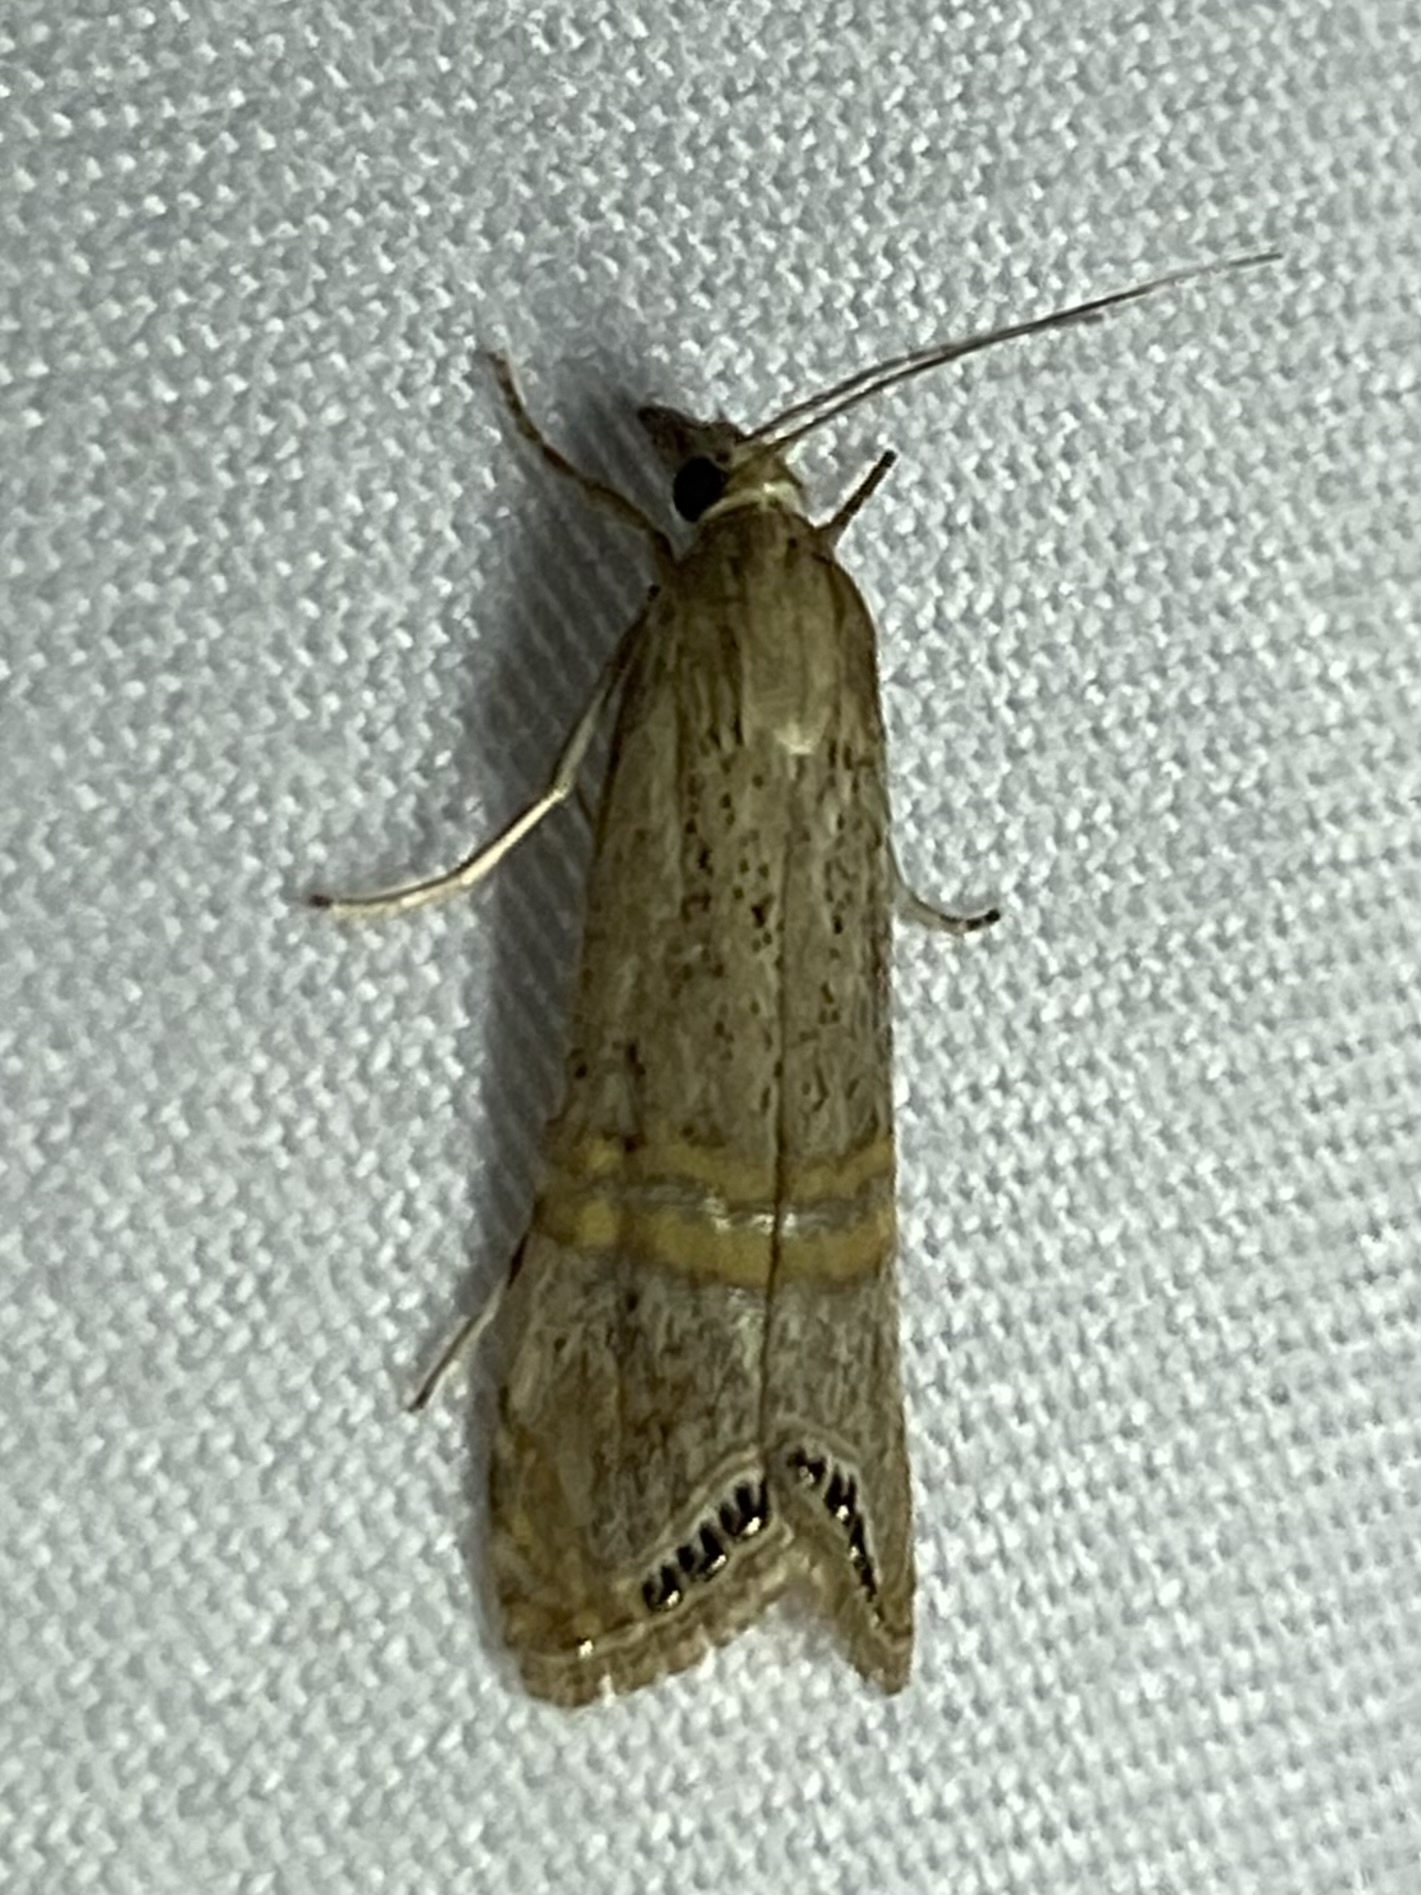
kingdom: Animalia
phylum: Arthropoda
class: Insecta
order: Lepidoptera
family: Crambidae
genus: Euchromius
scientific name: Euchromius ocellea
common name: Necklace veneer moth
